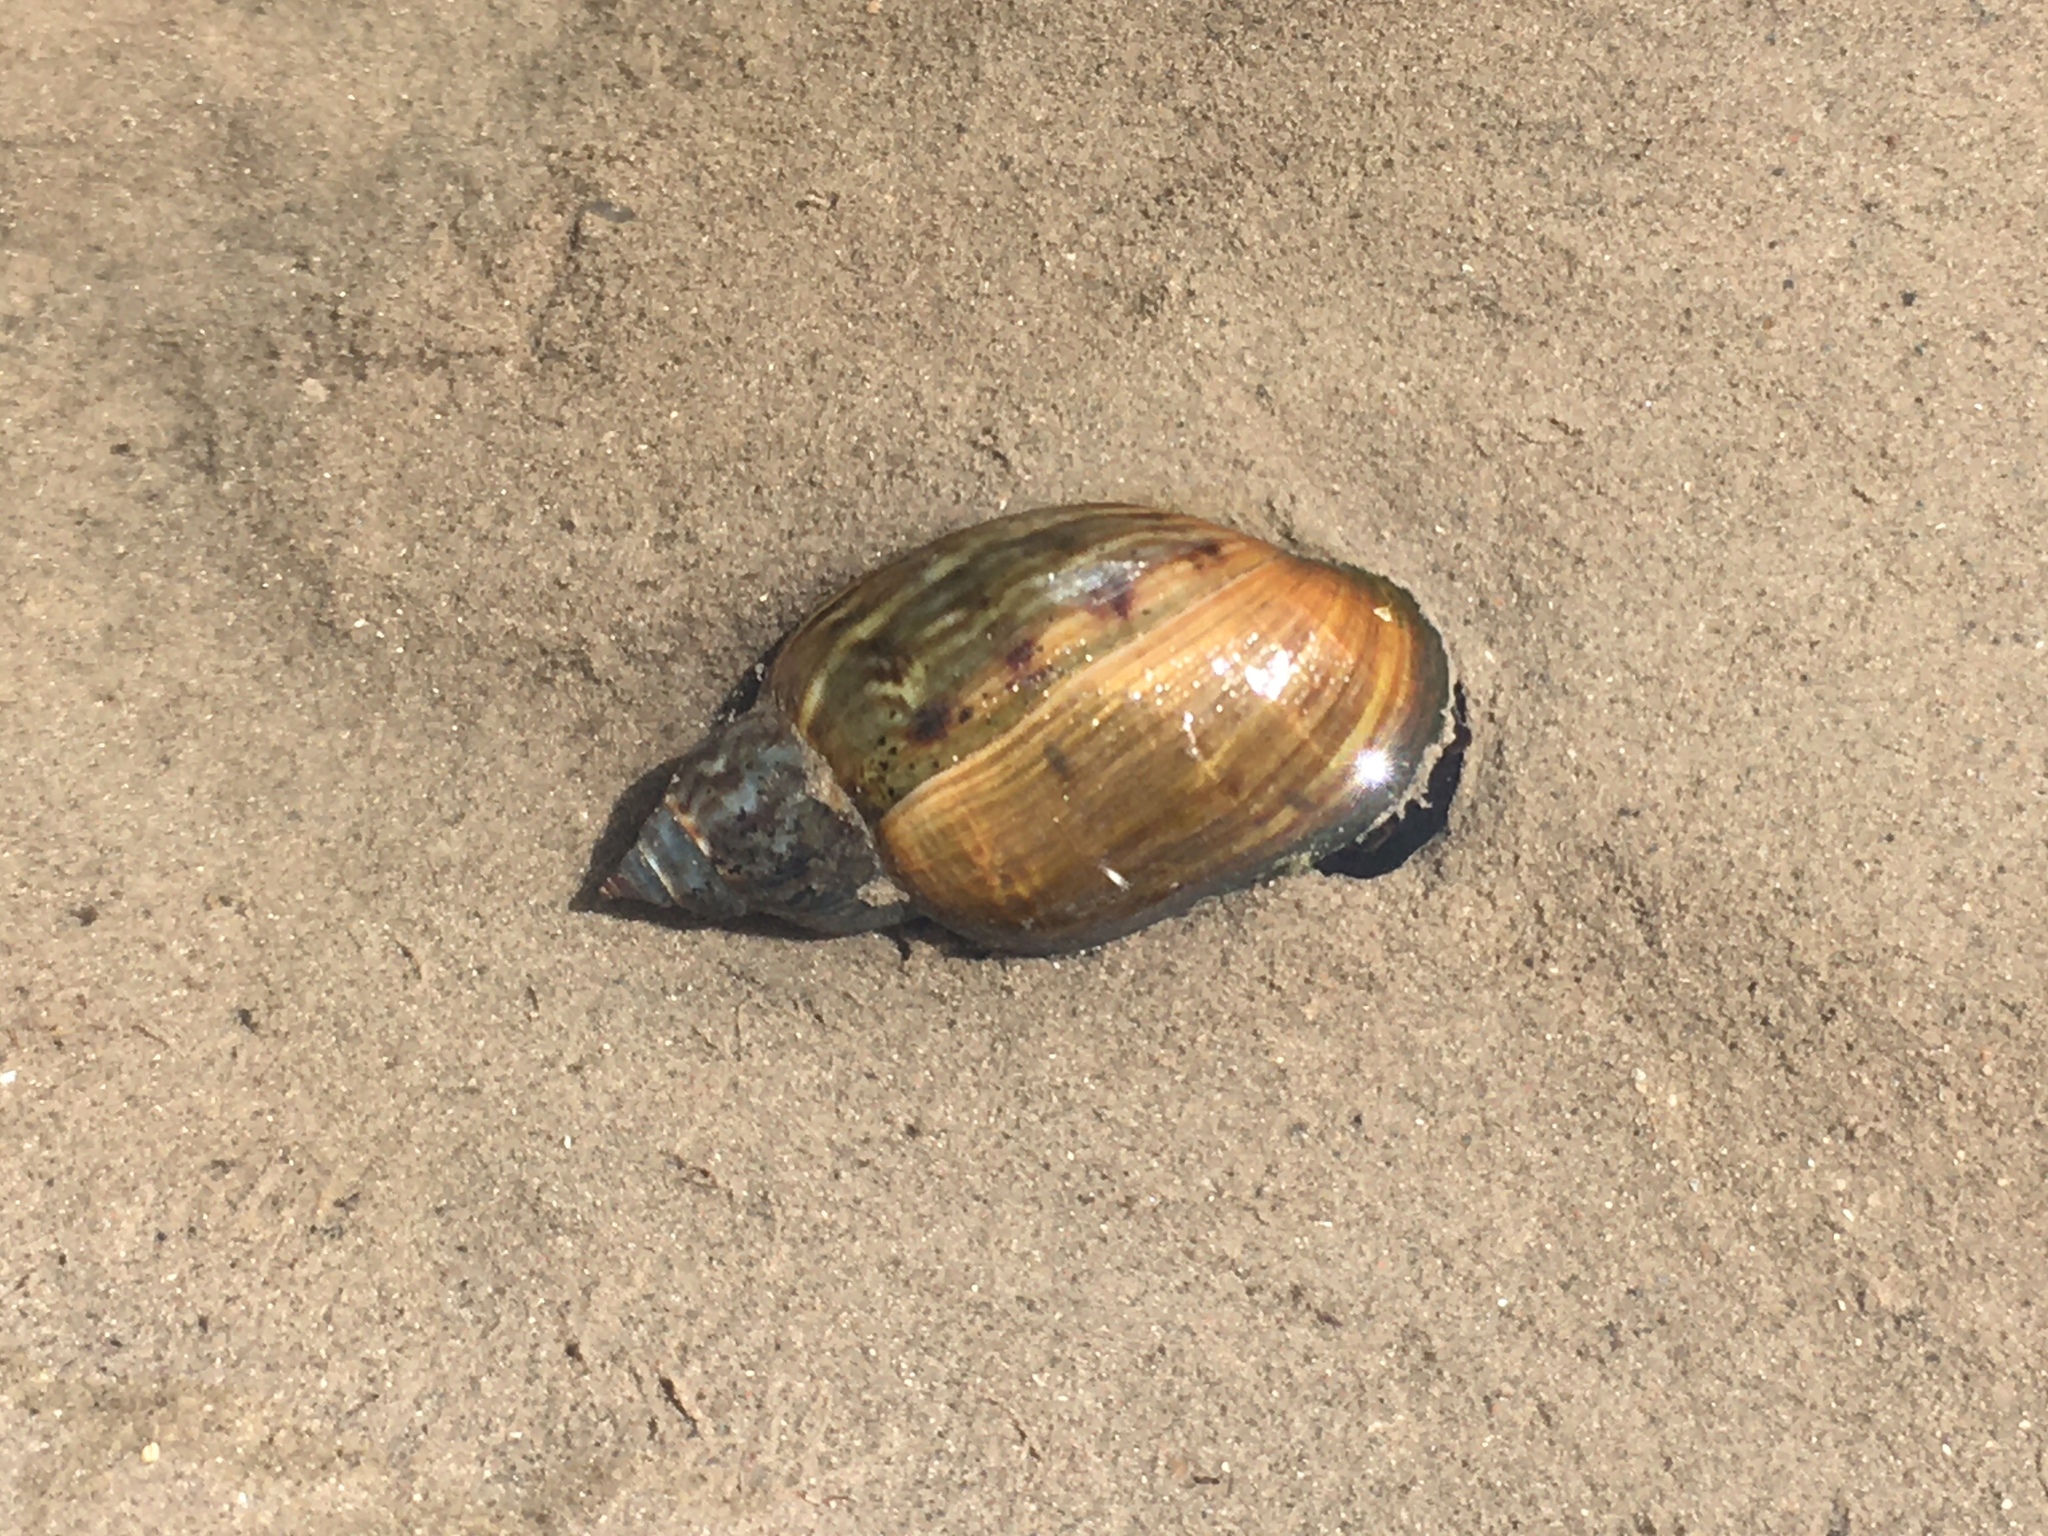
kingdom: Animalia
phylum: Mollusca
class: Gastropoda
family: Chilinidae
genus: Chilina
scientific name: Chilina parchappii
